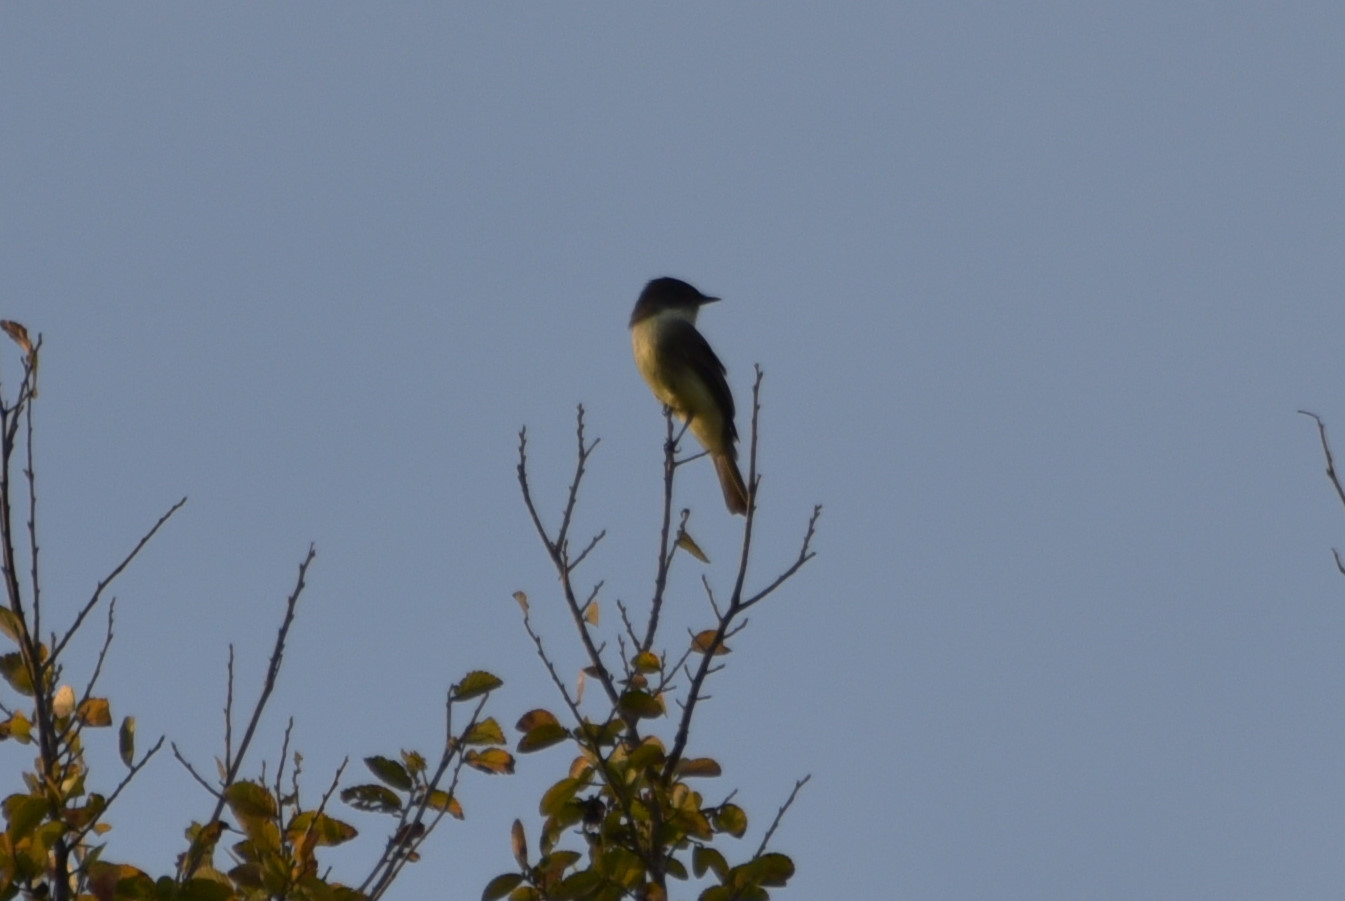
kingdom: Animalia
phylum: Chordata
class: Aves
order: Passeriformes
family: Tyrannidae
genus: Sayornis
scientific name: Sayornis phoebe
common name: Eastern phoebe
